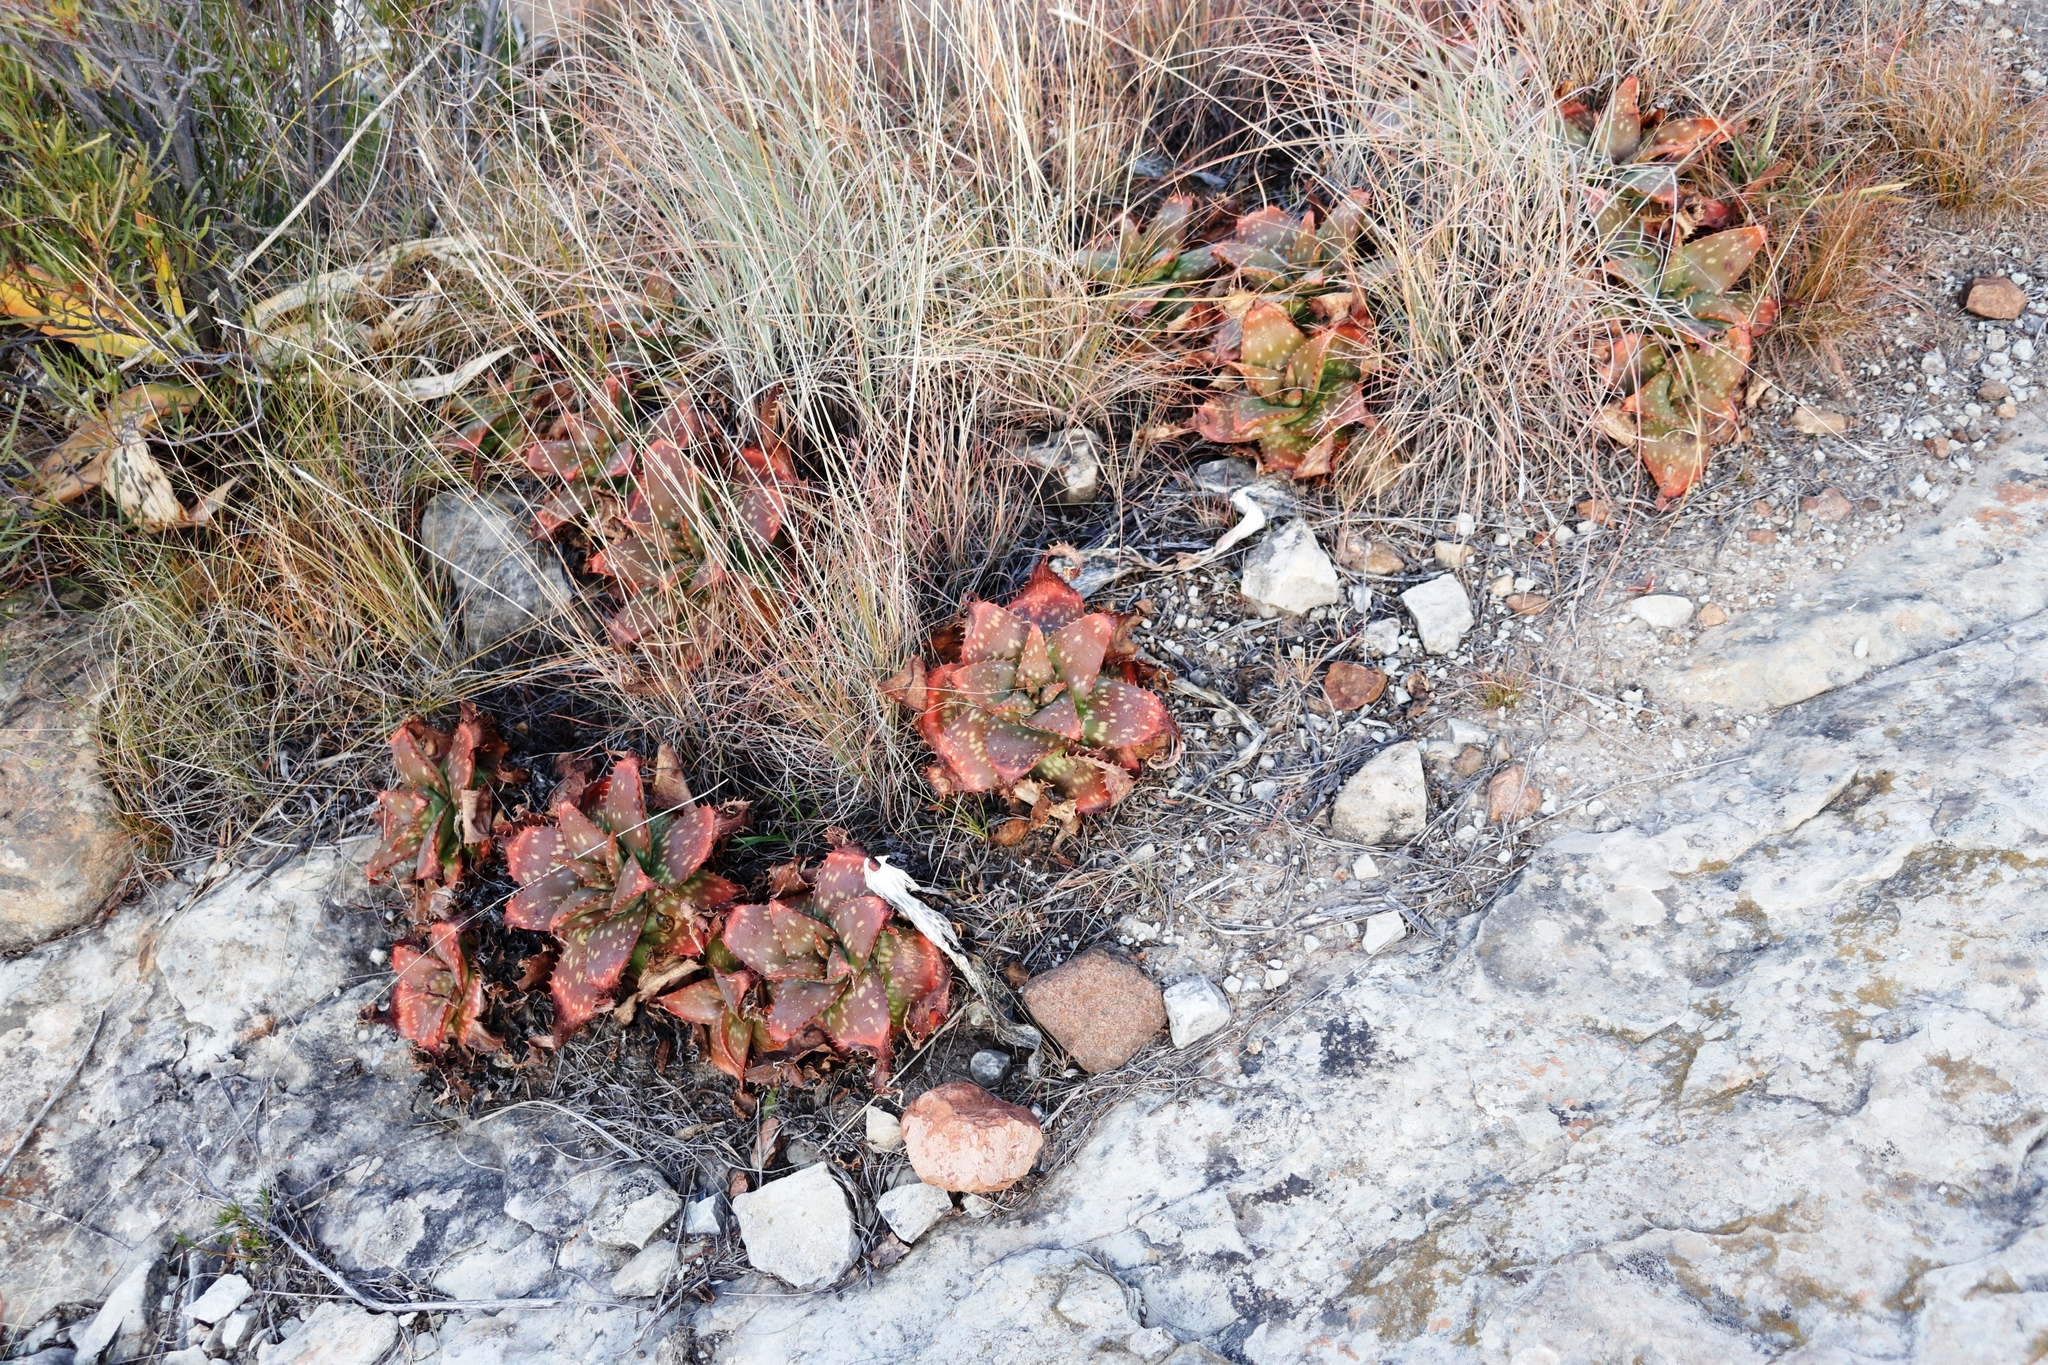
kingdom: Plantae
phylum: Tracheophyta
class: Liliopsida
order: Asparagales
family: Asphodelaceae
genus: Aloe
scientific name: Aloe maculata
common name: Broadleaf aloe
